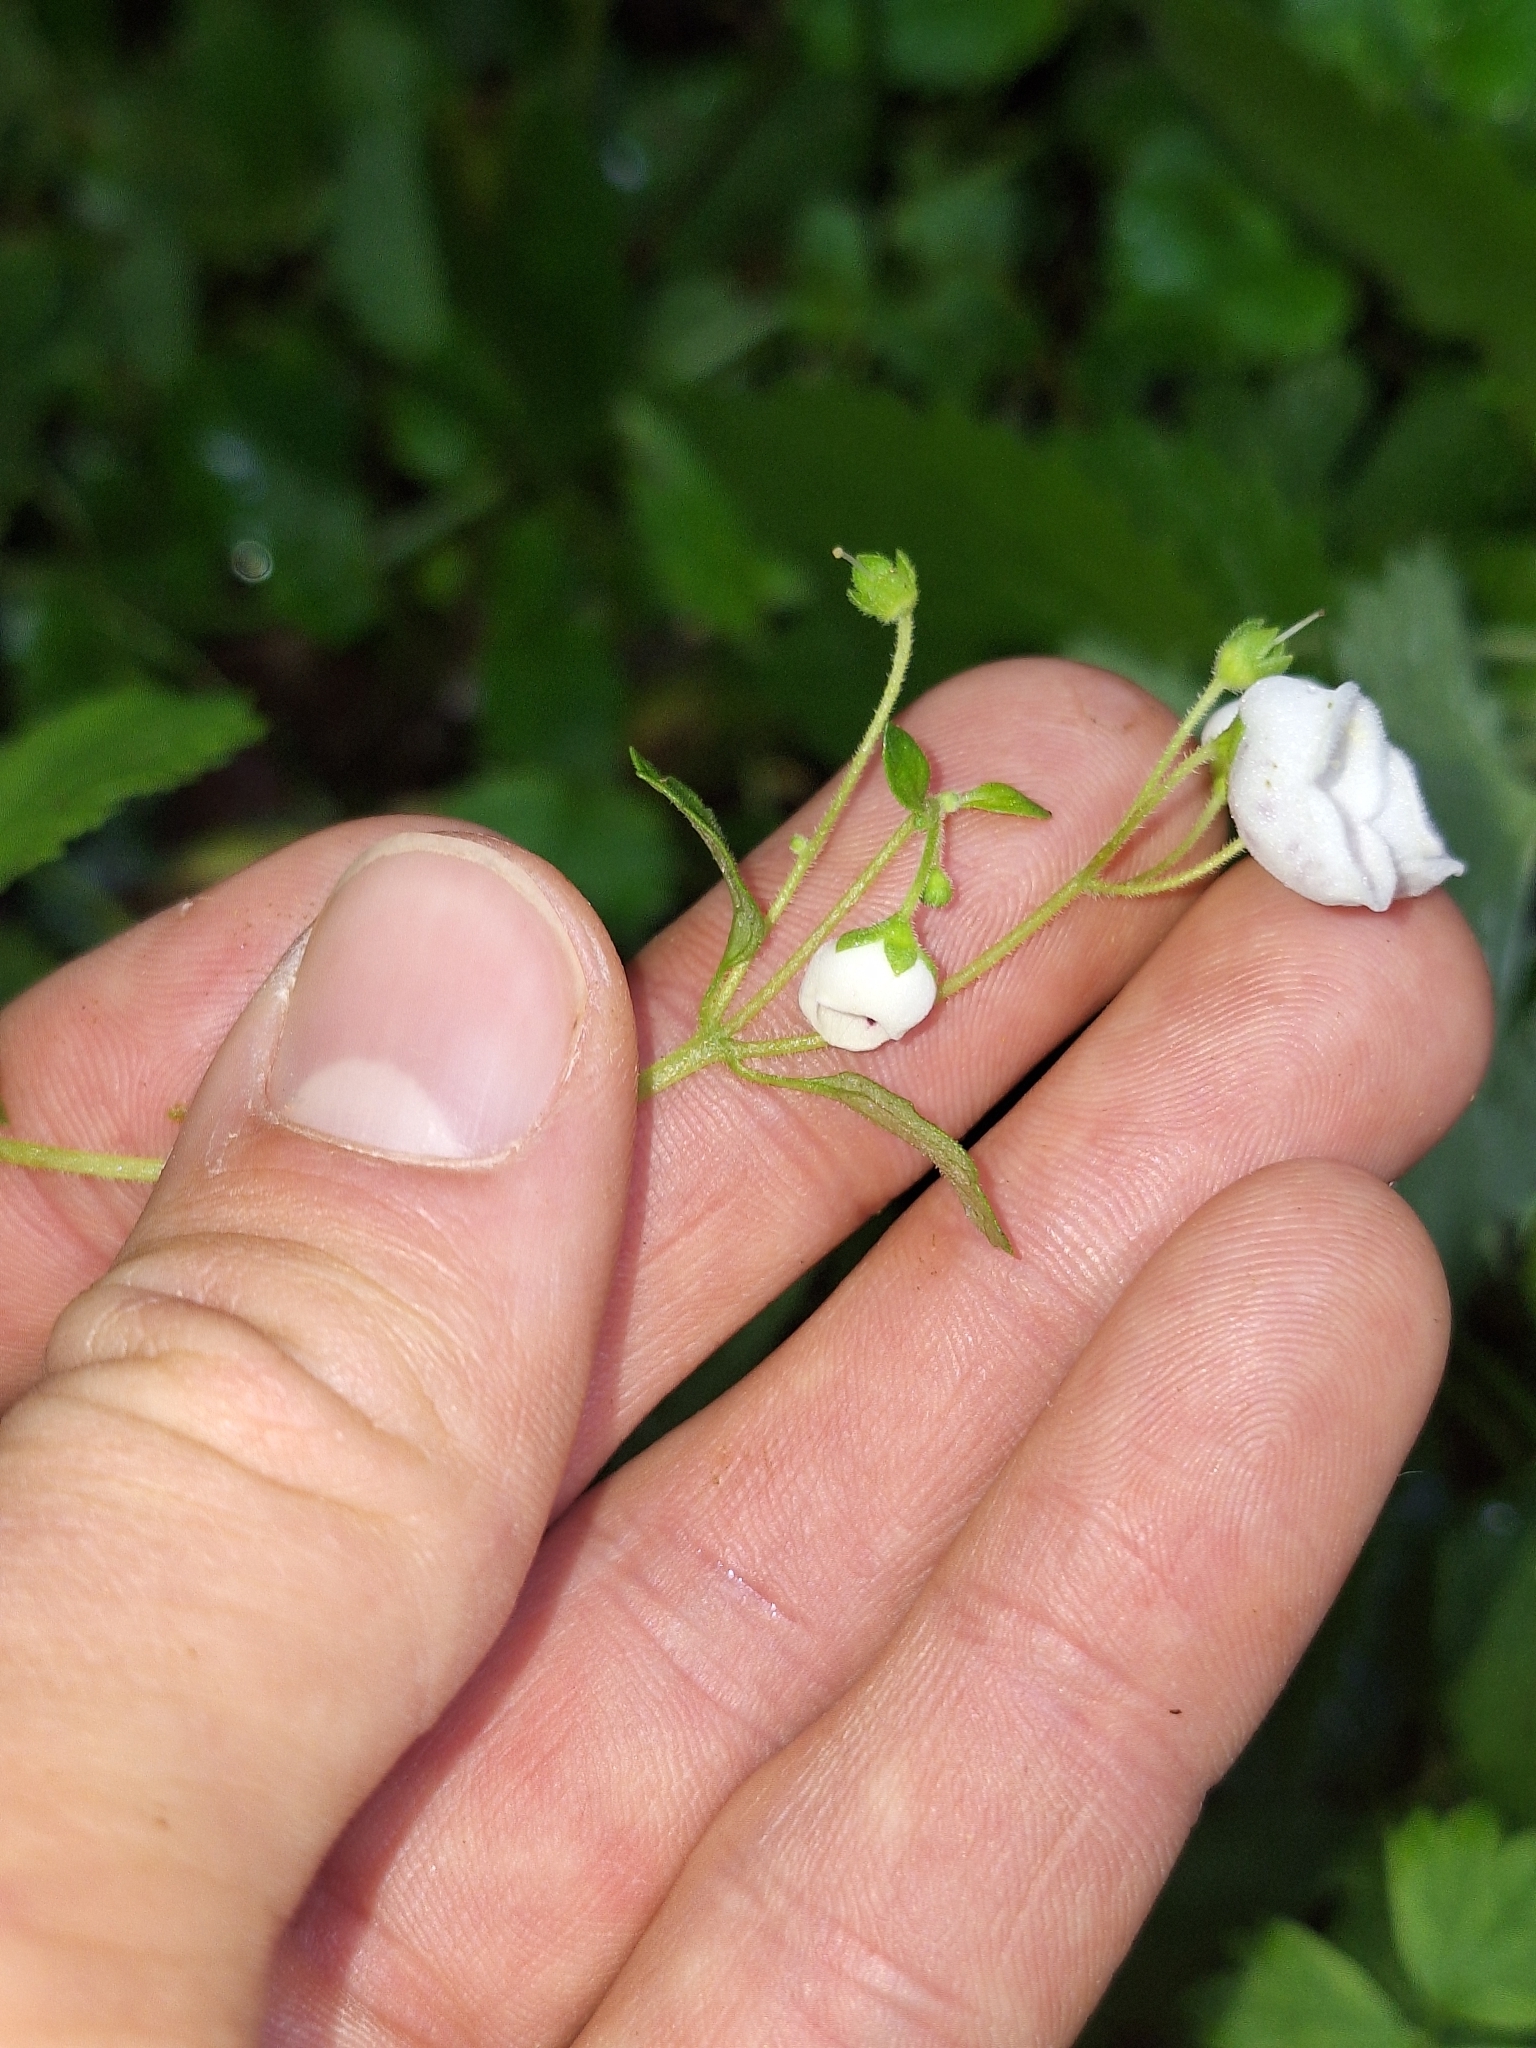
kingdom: Plantae
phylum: Tracheophyta
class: Magnoliopsida
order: Lamiales
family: Calceolariaceae
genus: Jovellana
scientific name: Jovellana sinclairii
